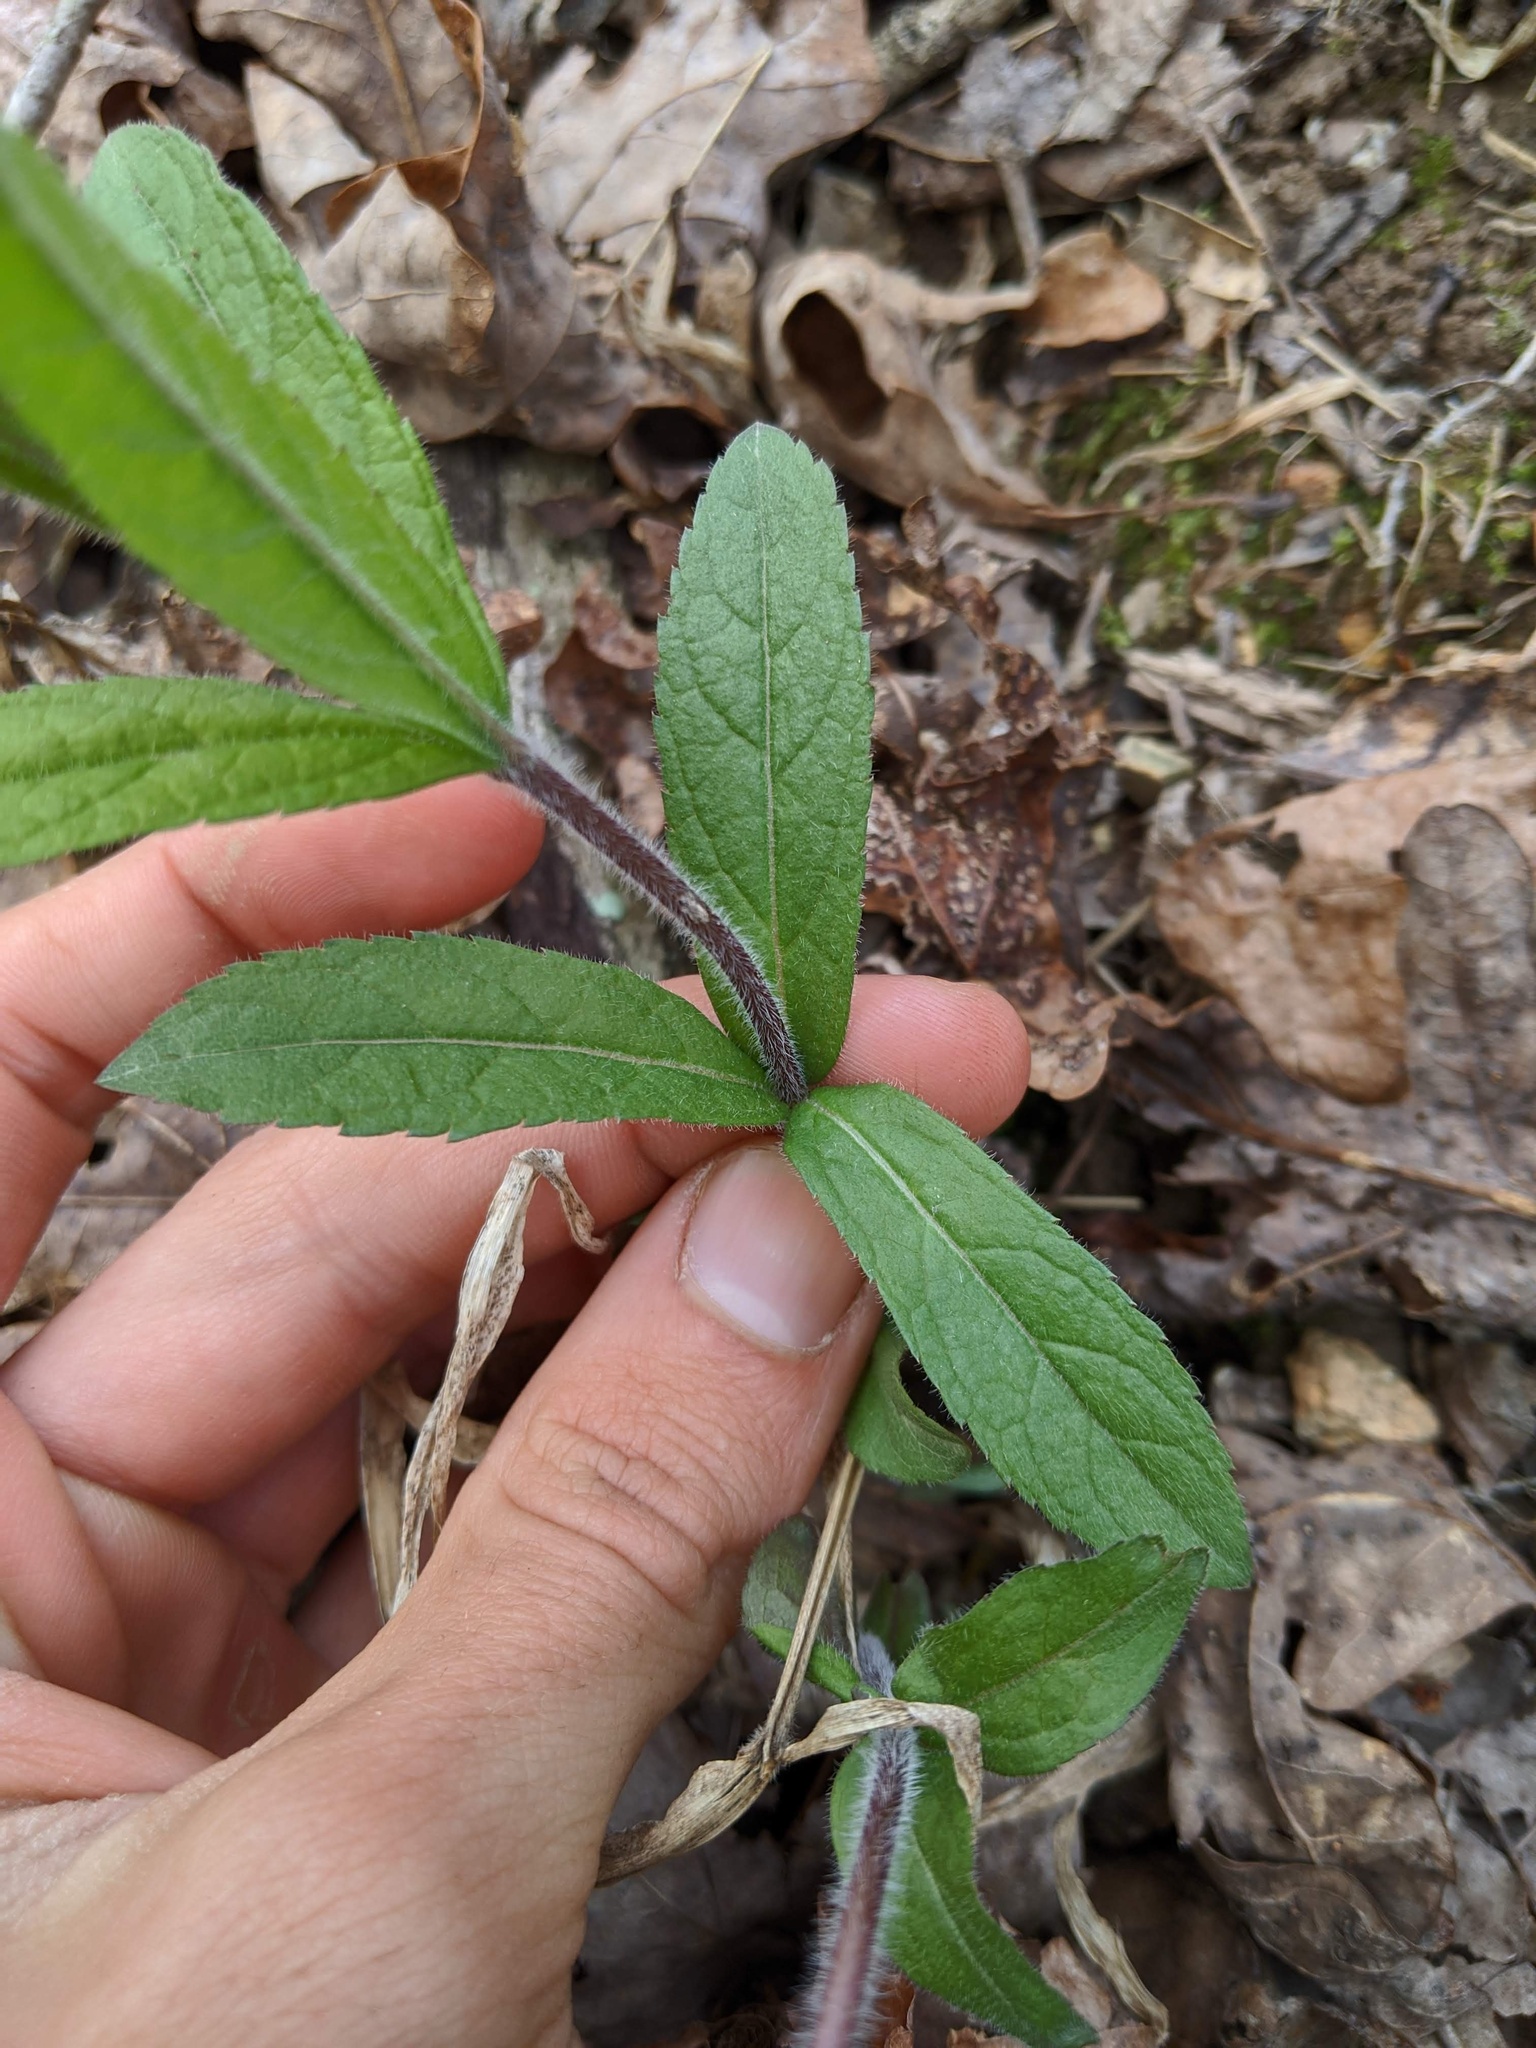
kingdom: Plantae
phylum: Tracheophyta
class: Magnoliopsida
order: Lamiales
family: Plantaginaceae
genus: Veronicastrum
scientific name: Veronicastrum virginicum
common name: Blackroot
